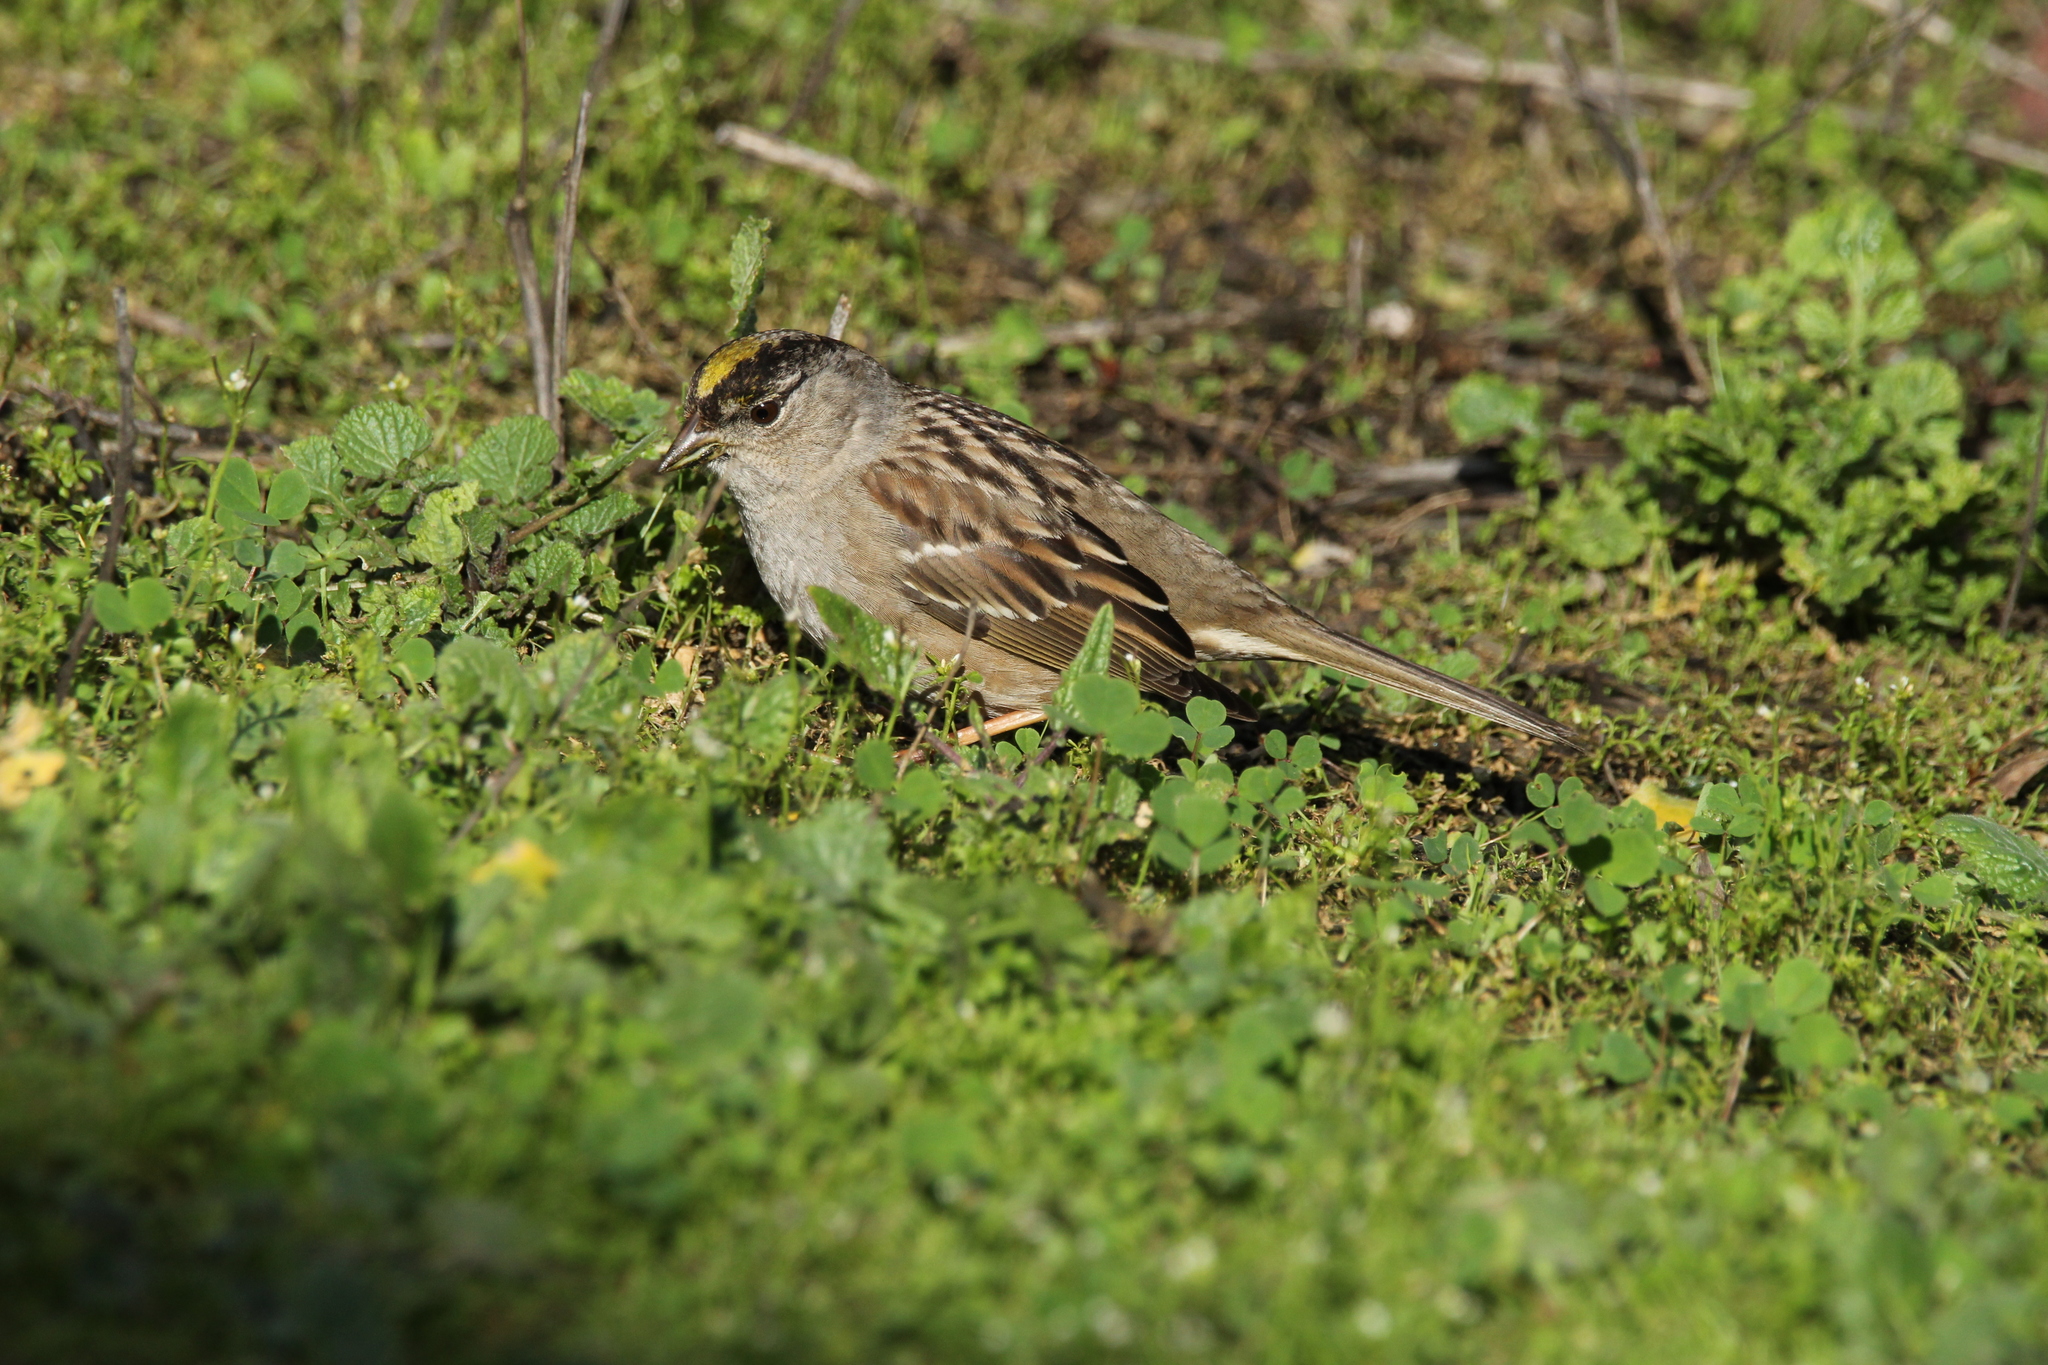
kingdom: Animalia
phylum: Chordata
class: Aves
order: Passeriformes
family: Passerellidae
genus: Zonotrichia
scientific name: Zonotrichia atricapilla
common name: Golden-crowned sparrow
